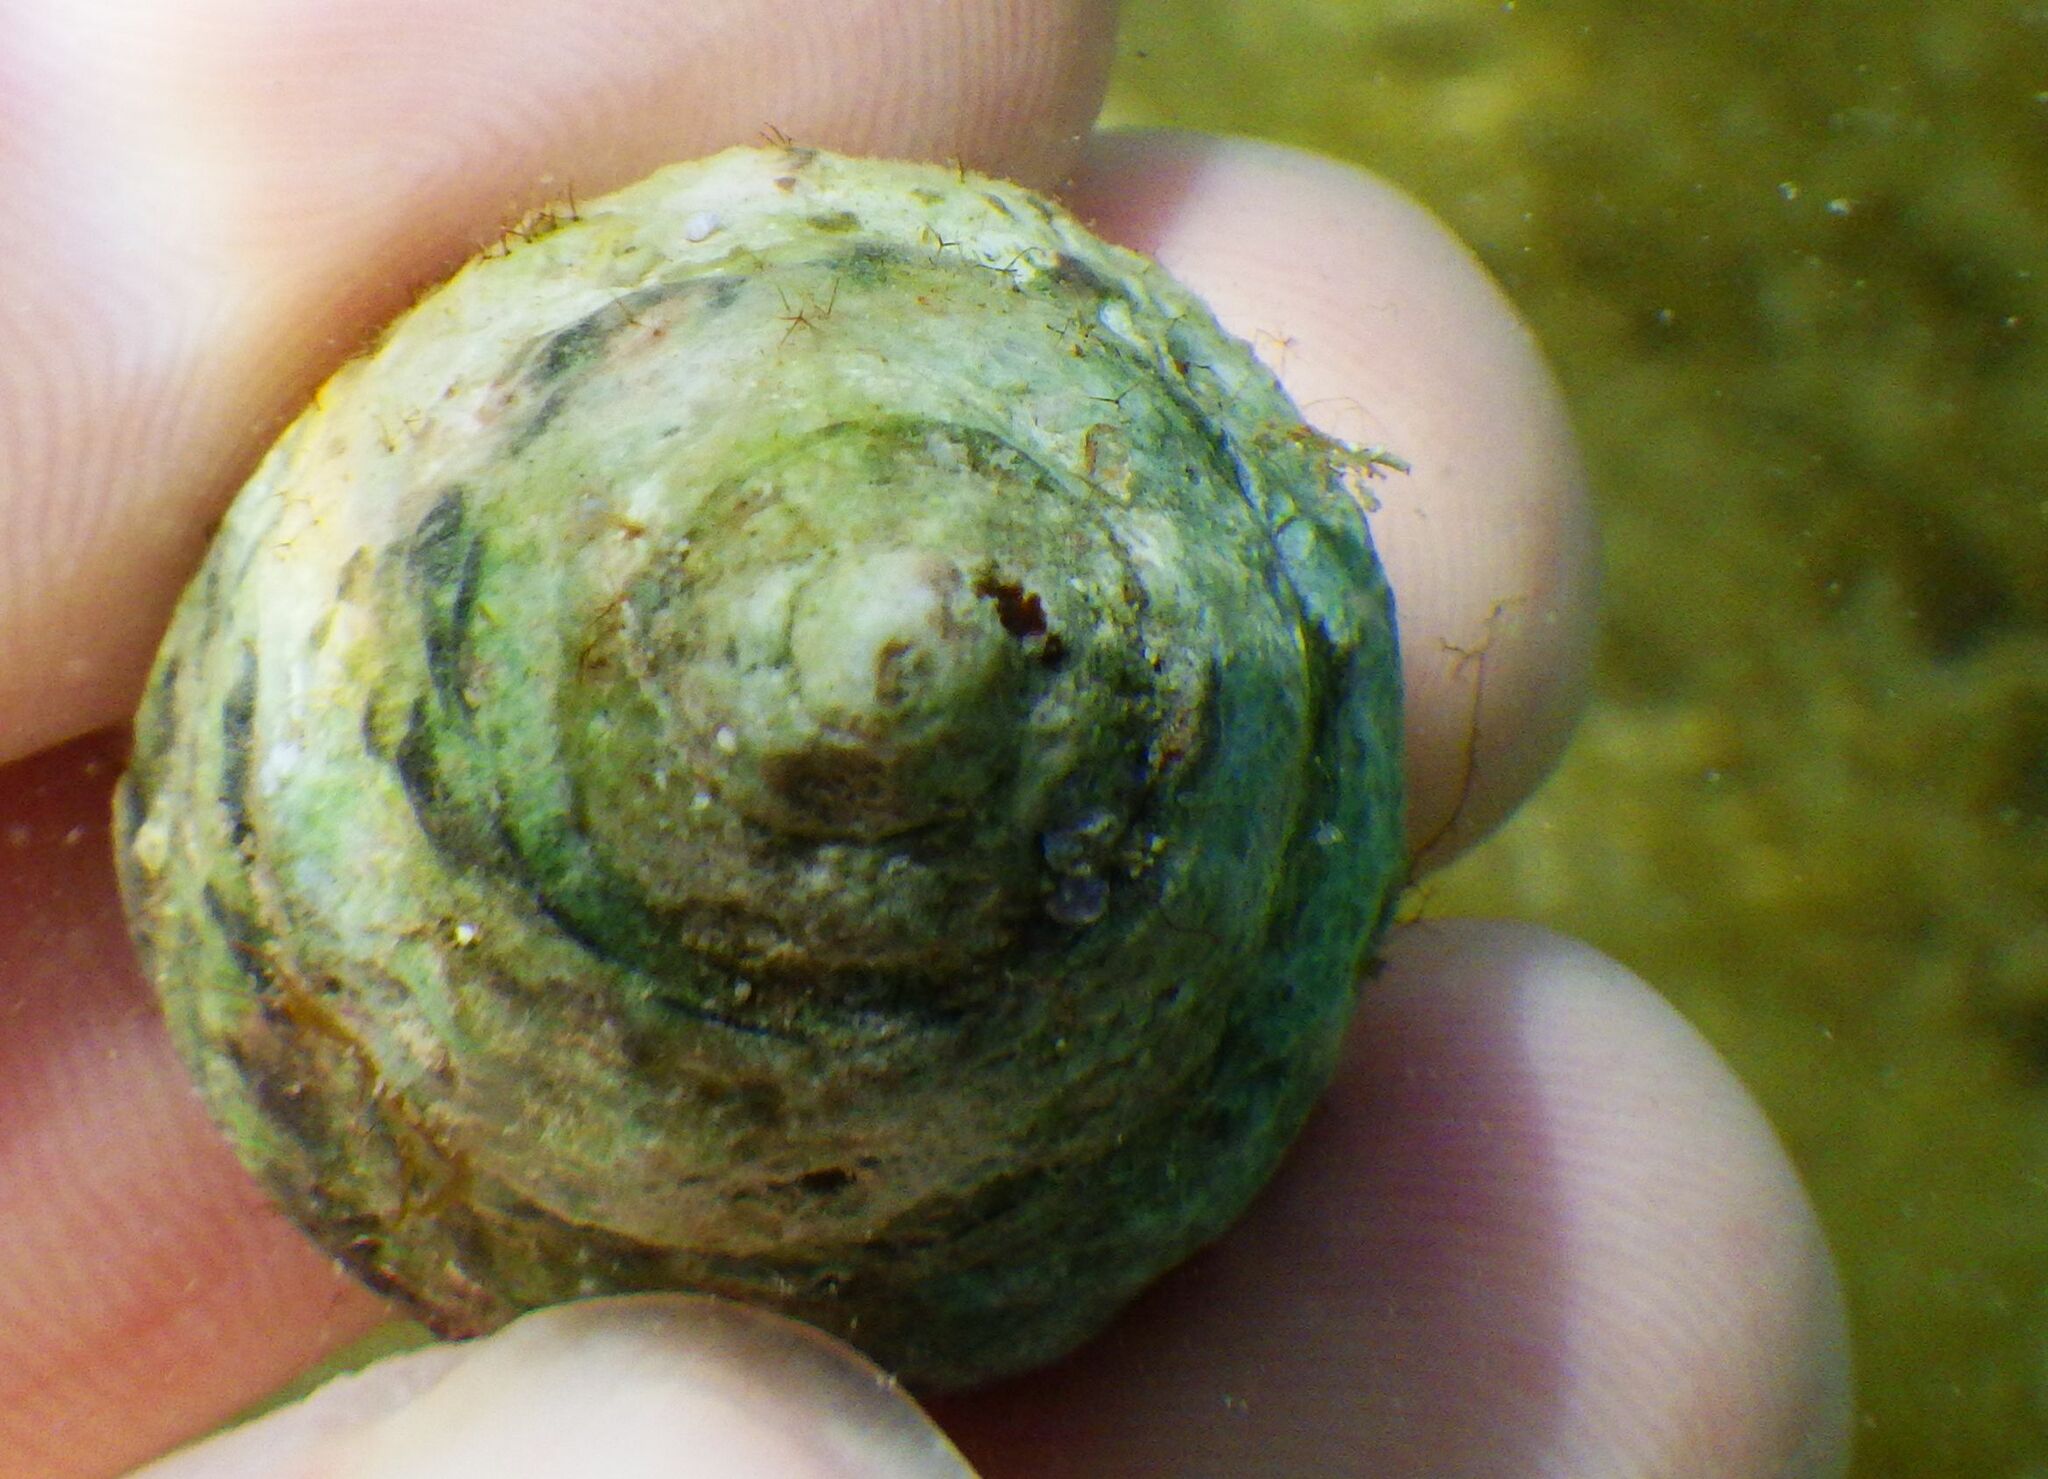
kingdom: Animalia
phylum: Mollusca
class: Gastropoda
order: Trochida
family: Trochidae
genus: Phorcus
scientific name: Phorcus
